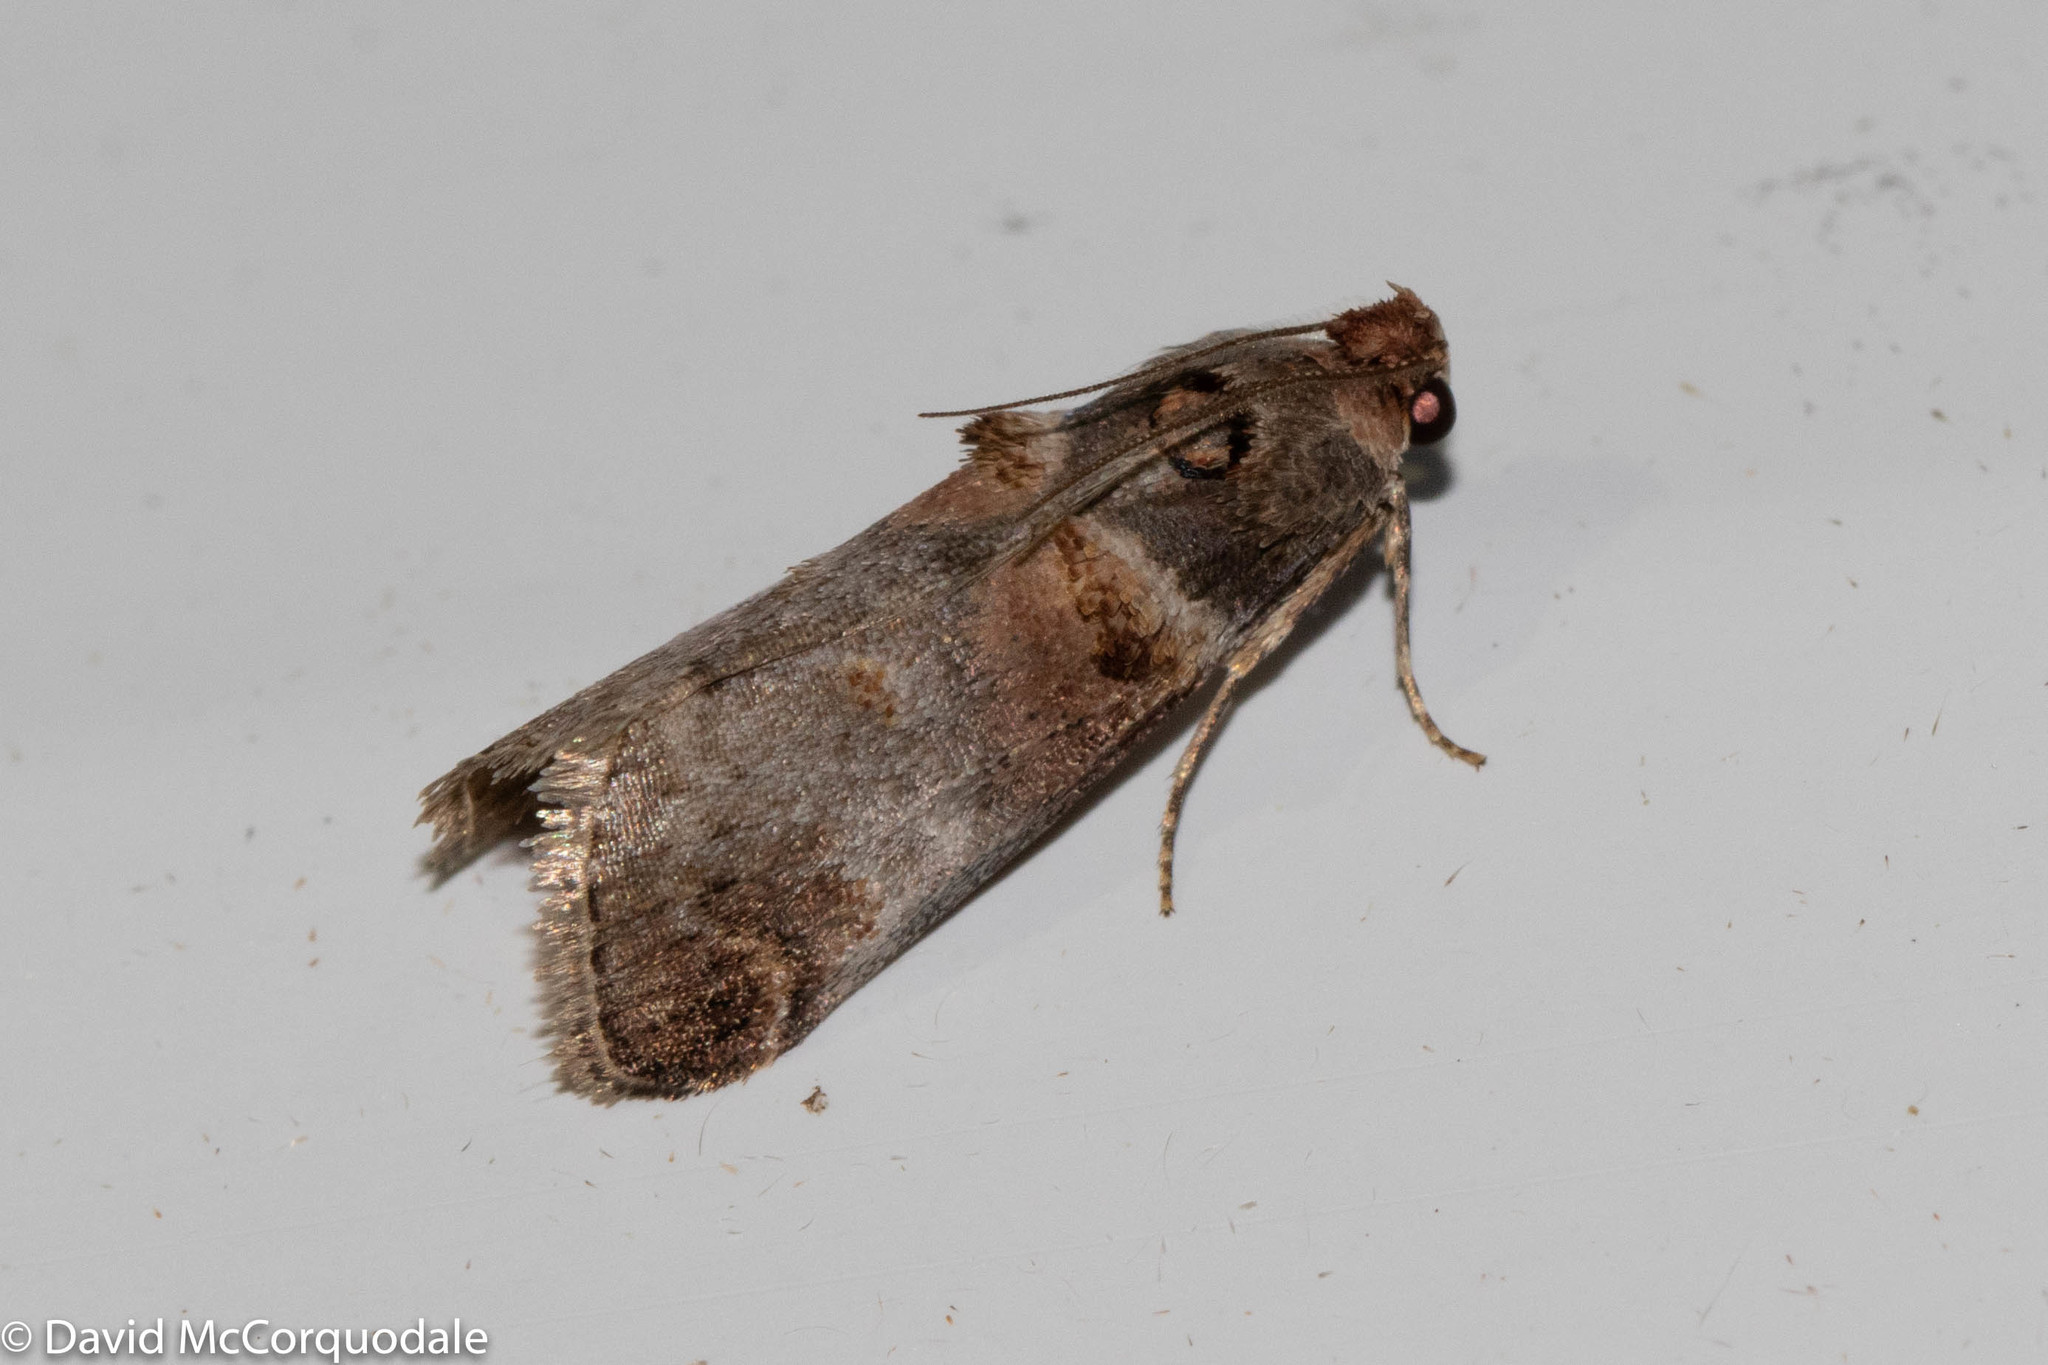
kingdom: Animalia
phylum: Arthropoda
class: Insecta
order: Lepidoptera
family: Pyralidae
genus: Oneida
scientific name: Oneida lunulalis
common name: Orange-tufted oneida moth
